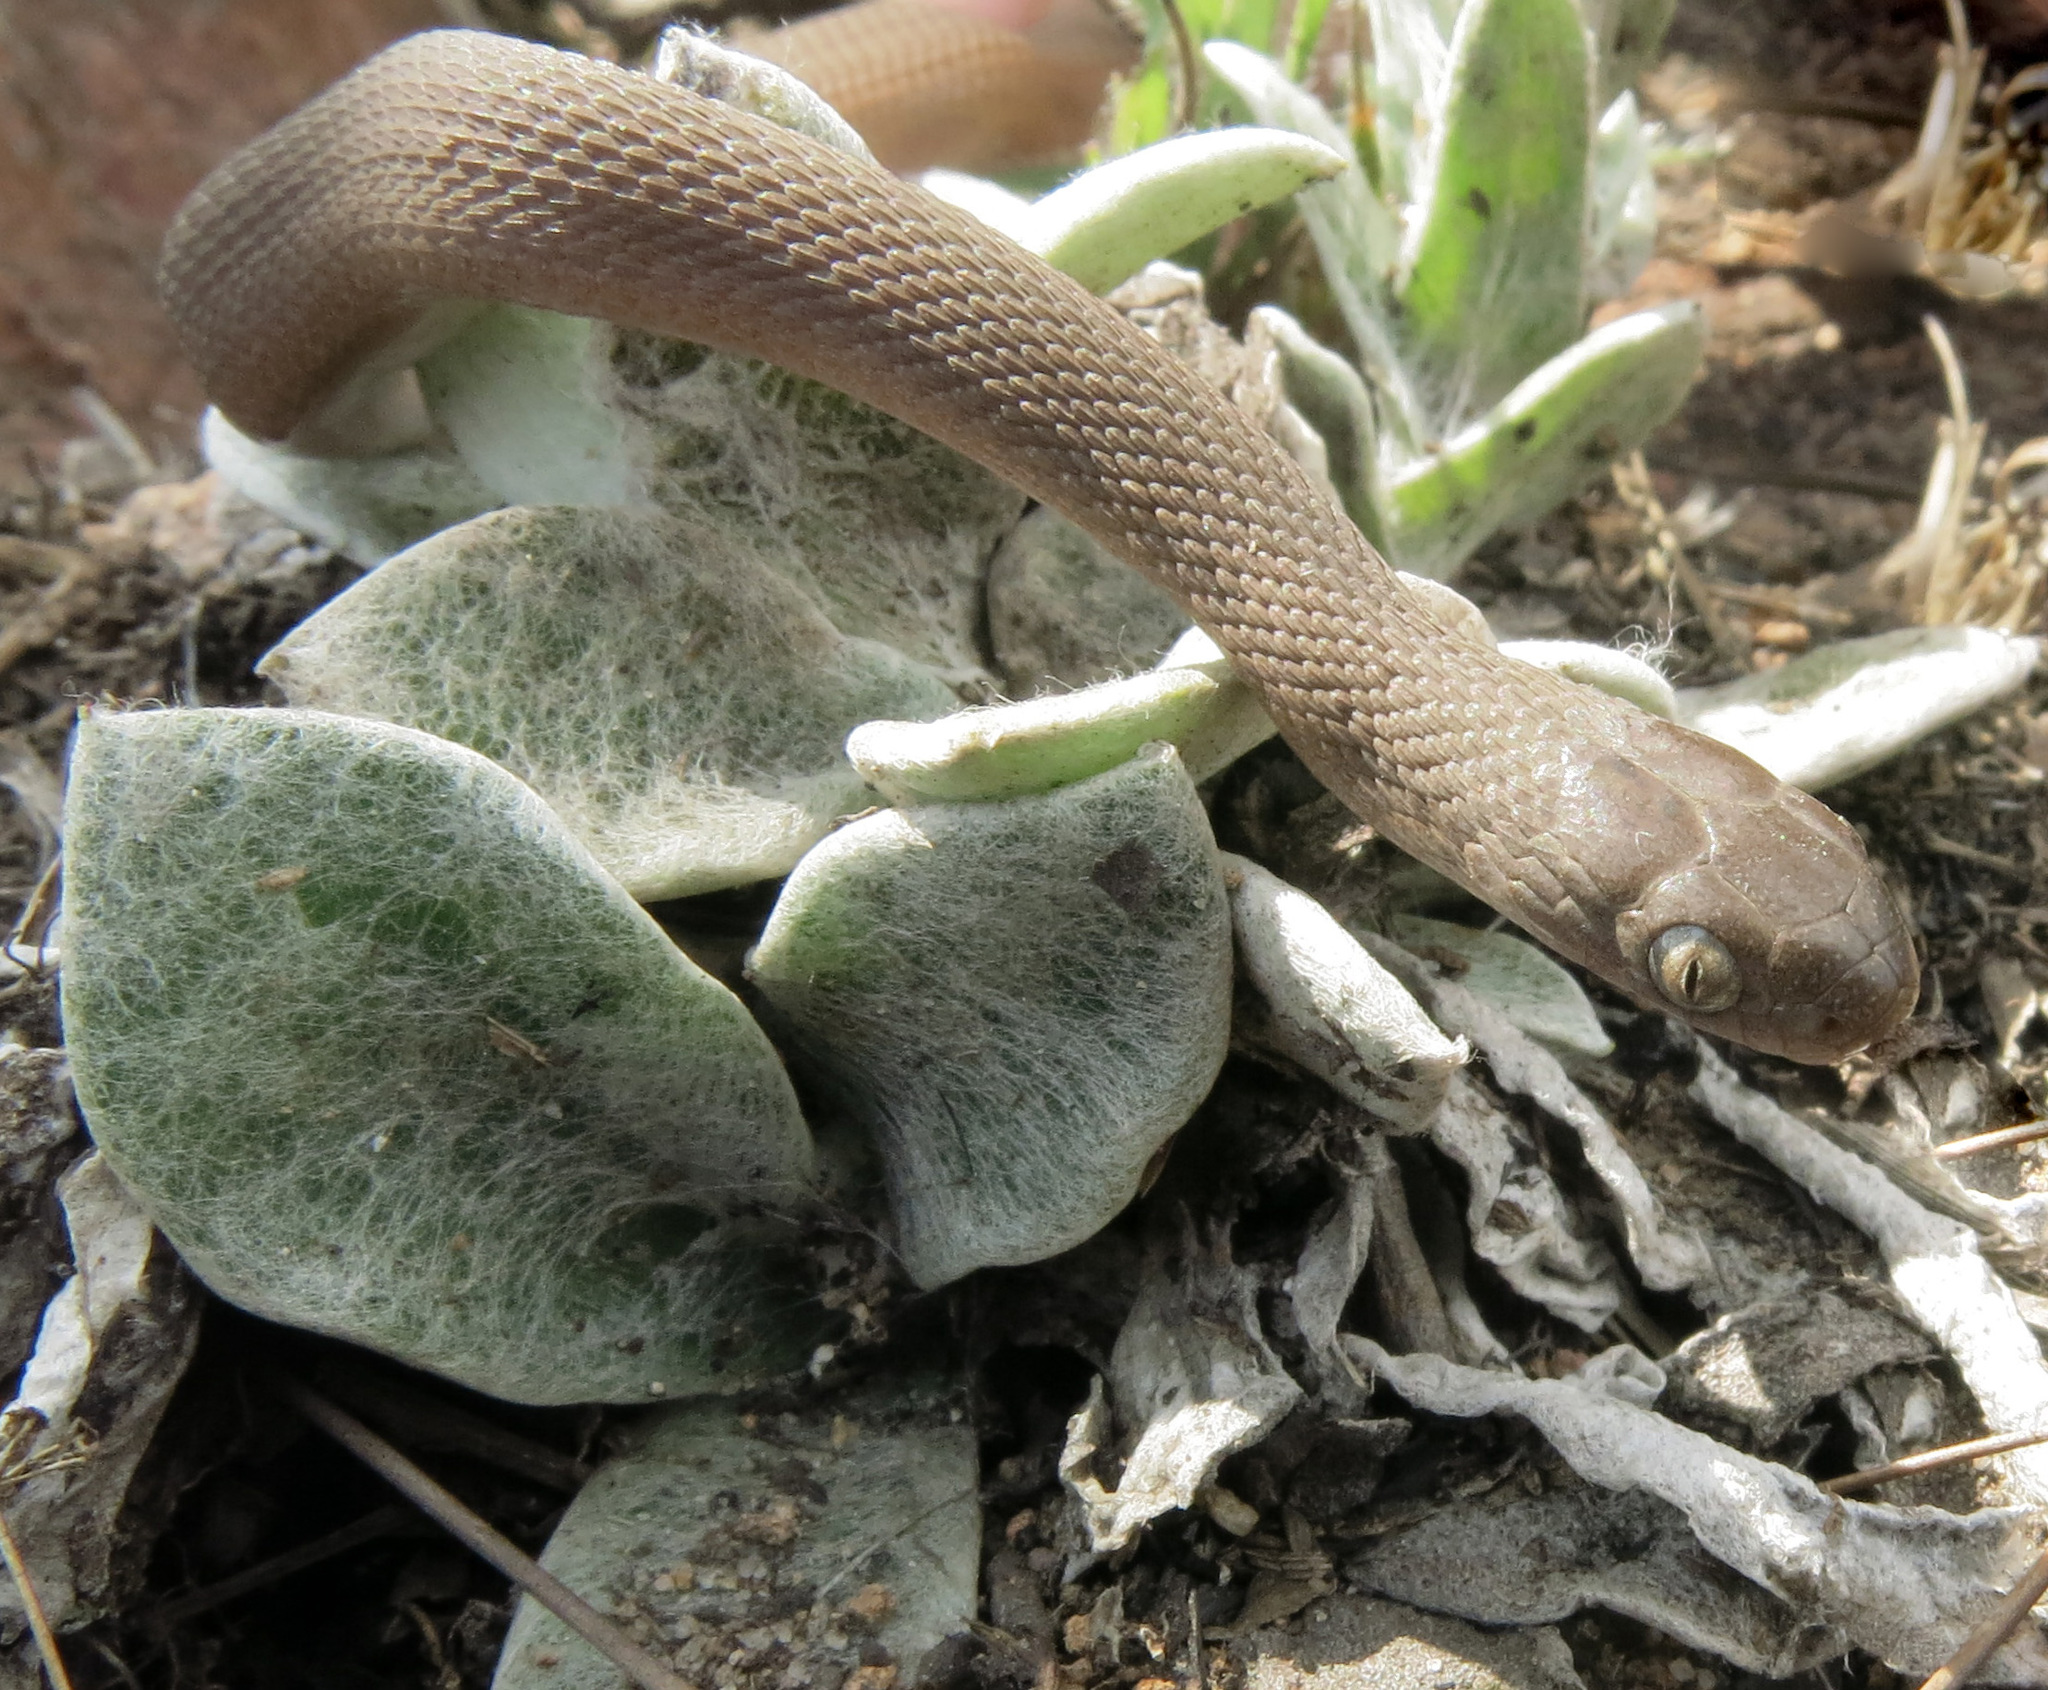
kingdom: Animalia
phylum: Chordata
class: Squamata
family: Colubridae
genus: Dasypeltis
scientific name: Dasypeltis inornata
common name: Southern brown egg eater
